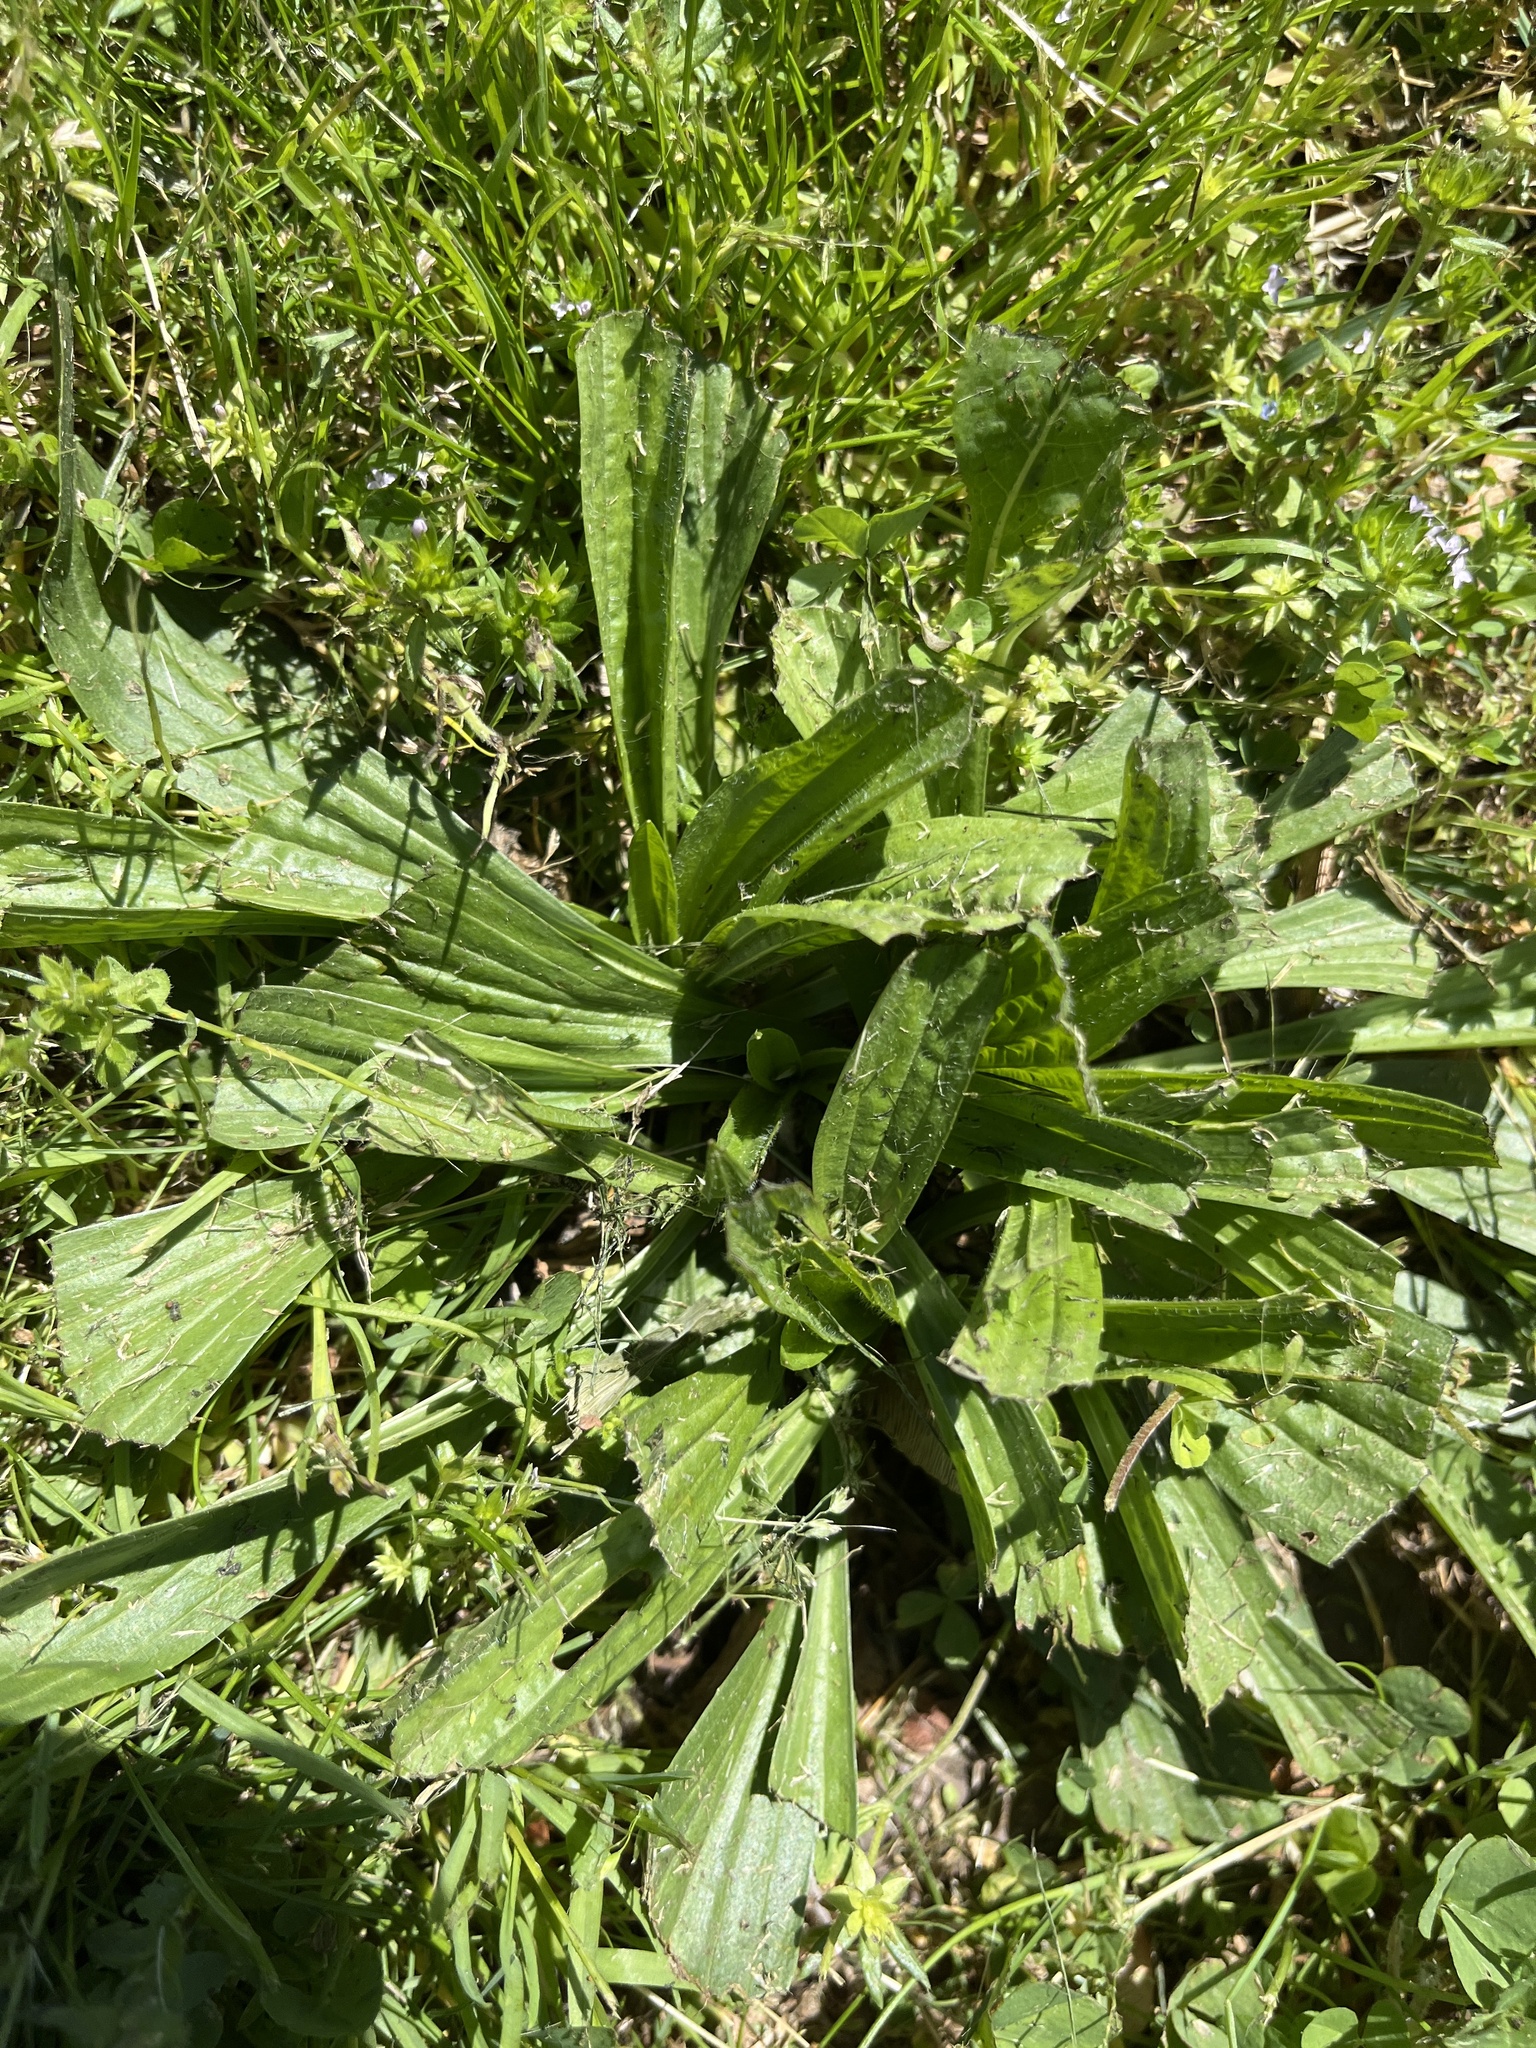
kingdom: Plantae
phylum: Tracheophyta
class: Magnoliopsida
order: Lamiales
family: Plantaginaceae
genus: Plantago
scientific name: Plantago lanceolata
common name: Ribwort plantain
